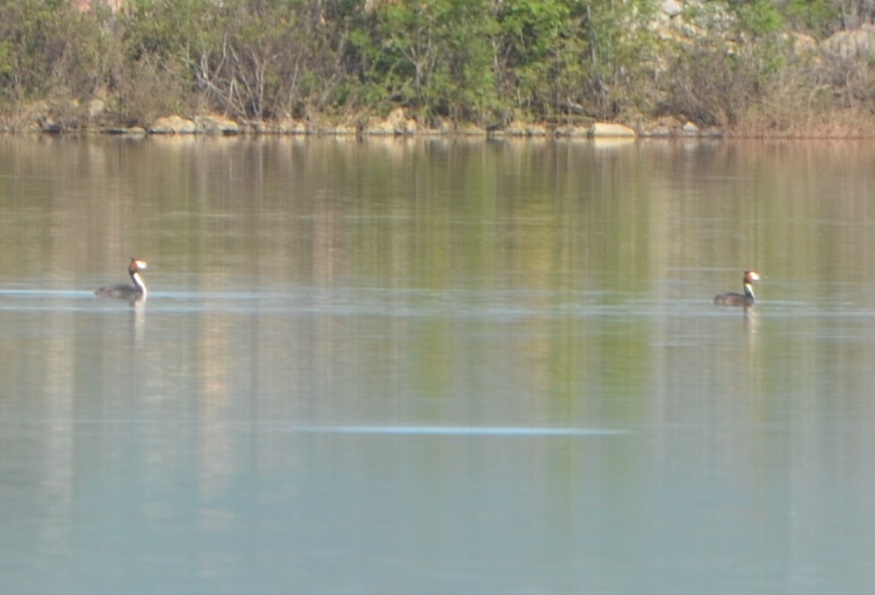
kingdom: Animalia
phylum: Chordata
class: Aves
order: Podicipediformes
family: Podicipedidae
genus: Podiceps
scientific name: Podiceps cristatus
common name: Great crested grebe
